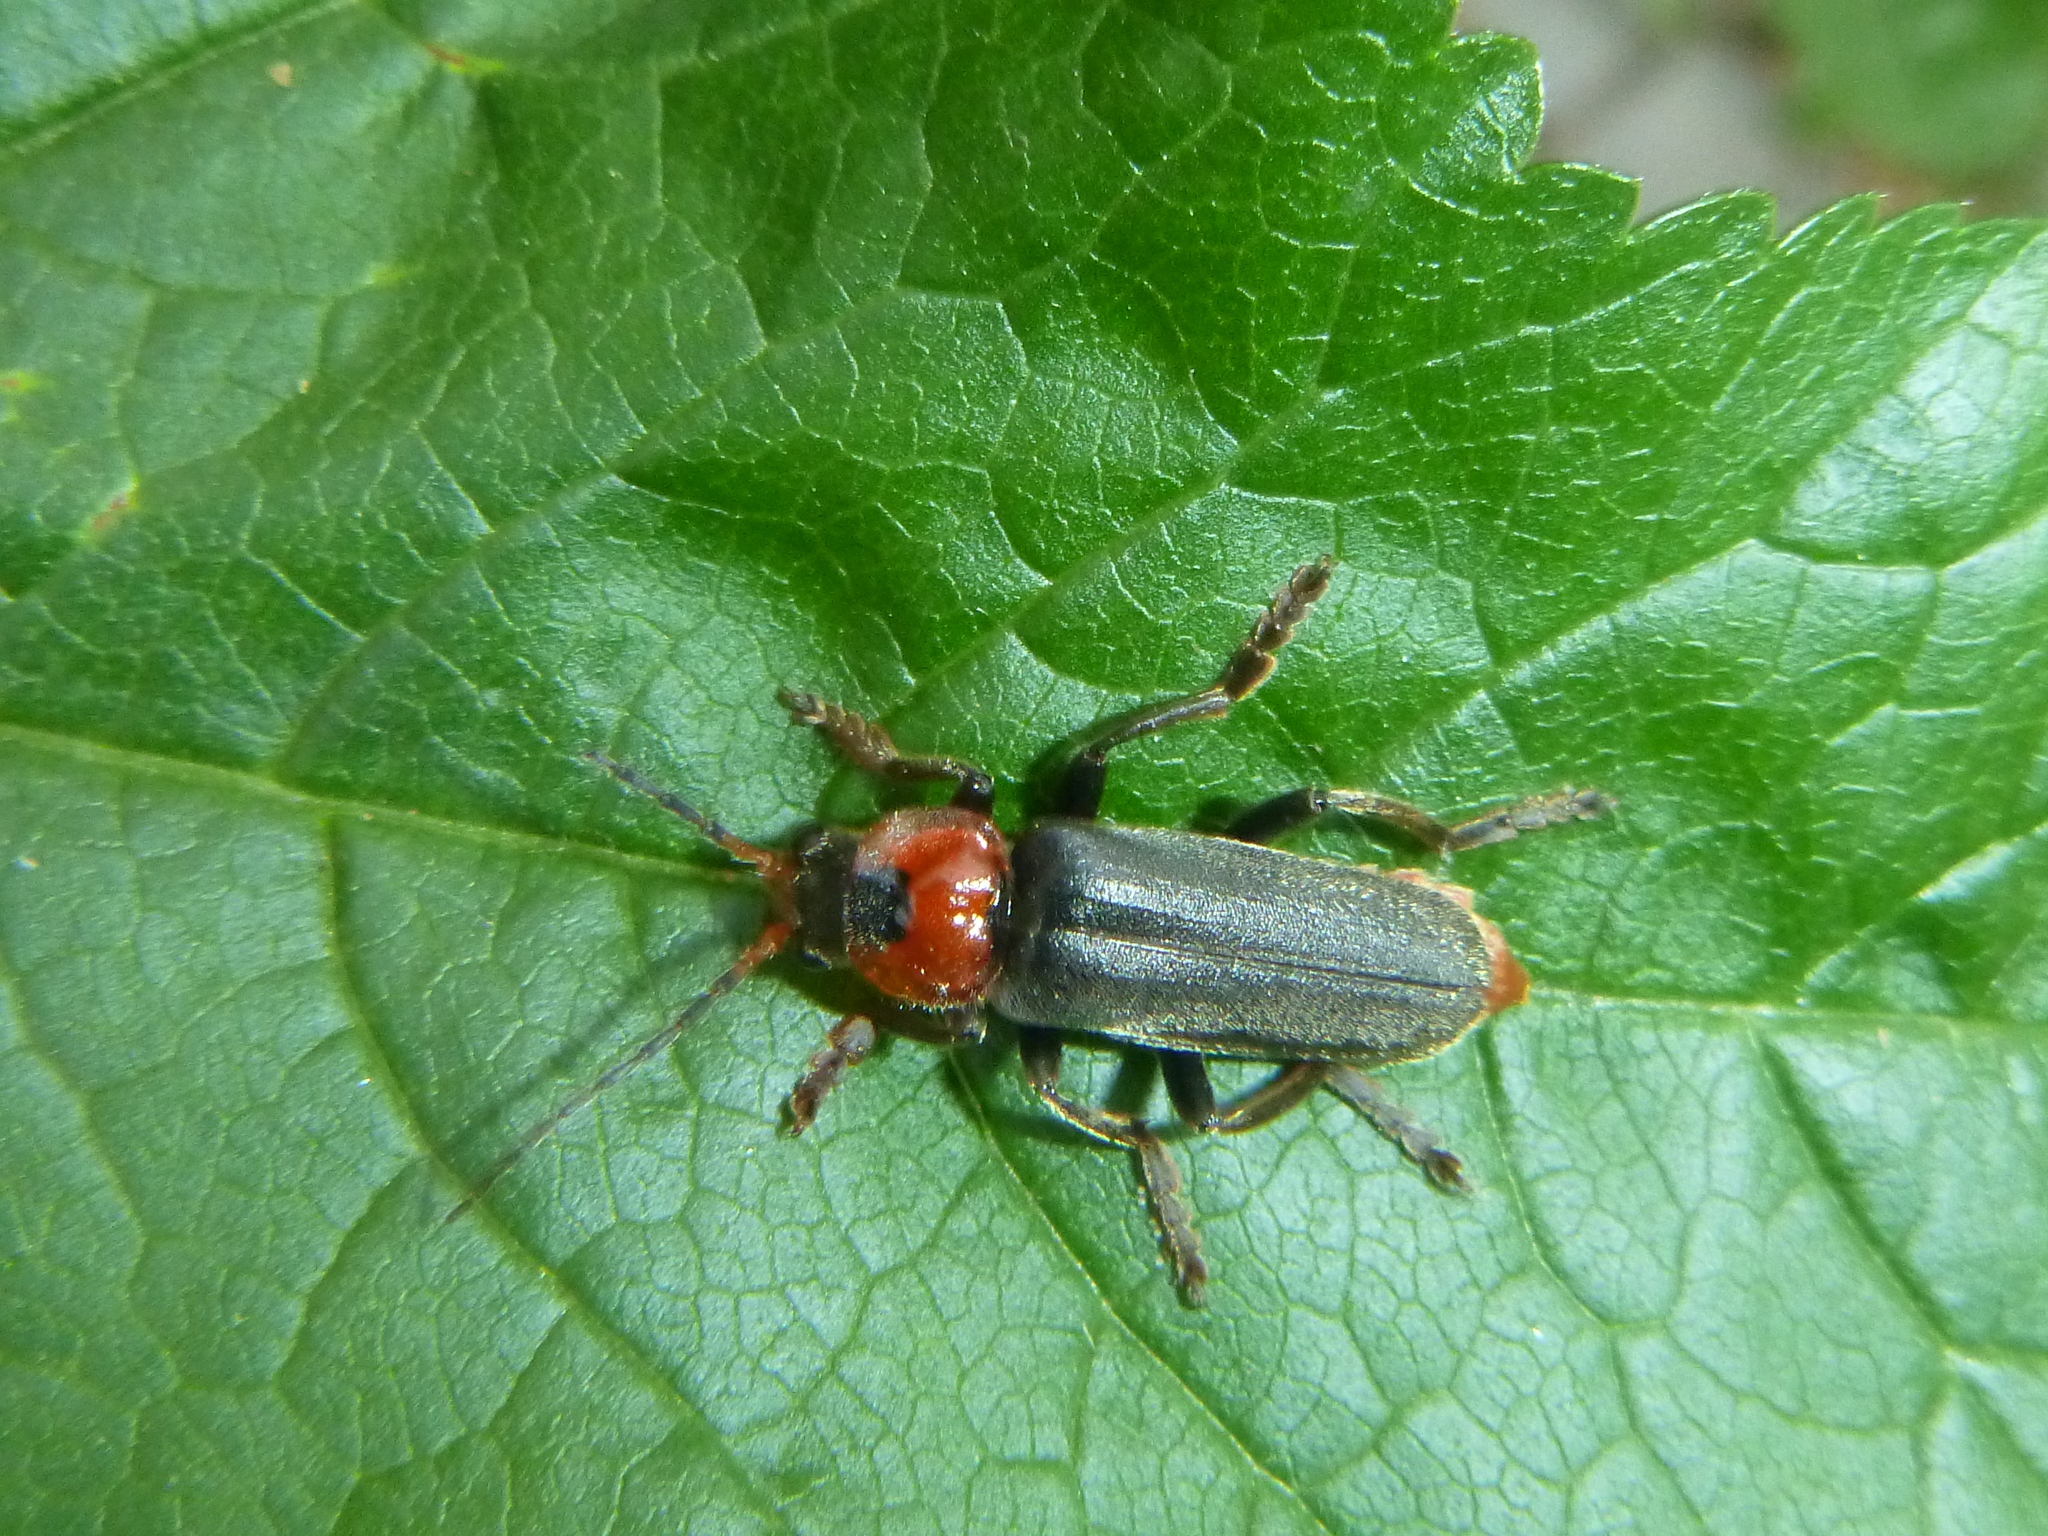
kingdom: Animalia
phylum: Arthropoda
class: Insecta
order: Coleoptera
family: Cantharidae
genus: Cantharis
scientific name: Cantharis fusca
